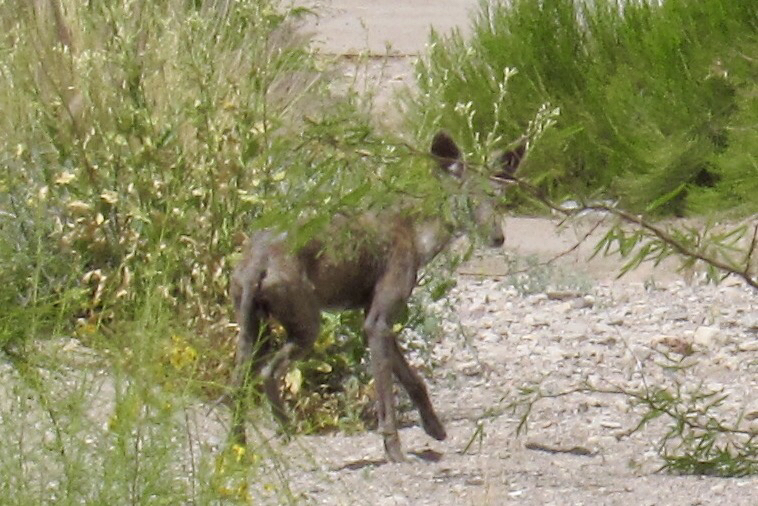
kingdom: Animalia
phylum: Chordata
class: Mammalia
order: Carnivora
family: Canidae
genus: Canis
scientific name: Canis latrans
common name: Coyote
